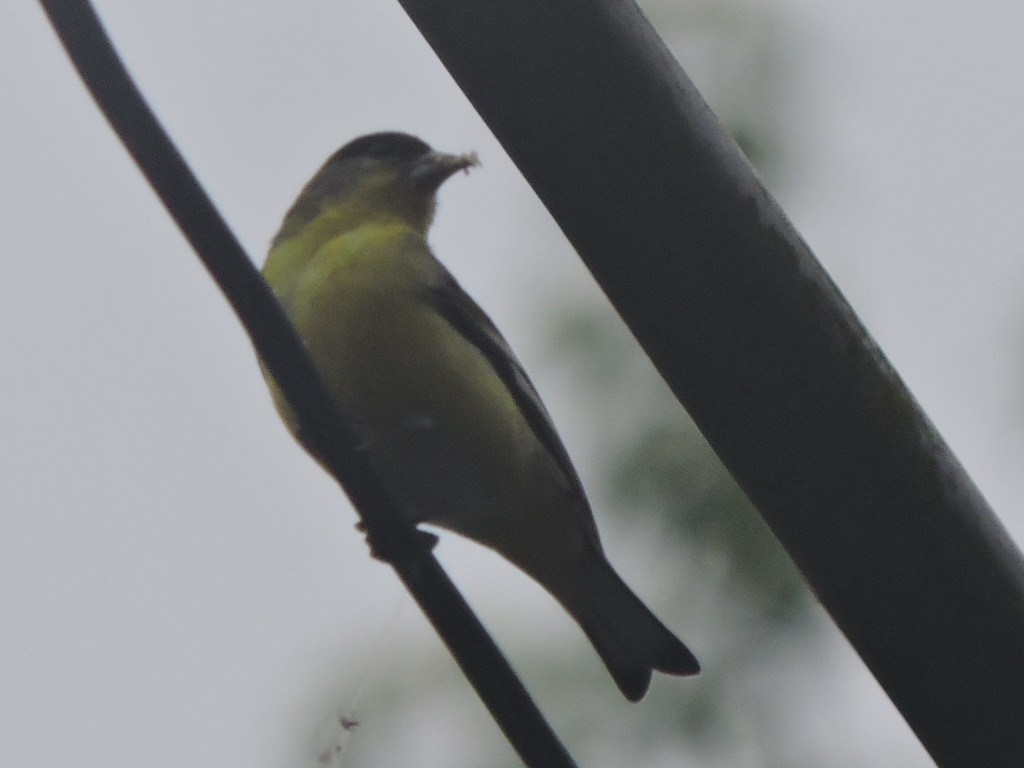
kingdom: Animalia
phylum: Chordata
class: Aves
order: Passeriformes
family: Fringillidae
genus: Spinus
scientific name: Spinus psaltria
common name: Lesser goldfinch
